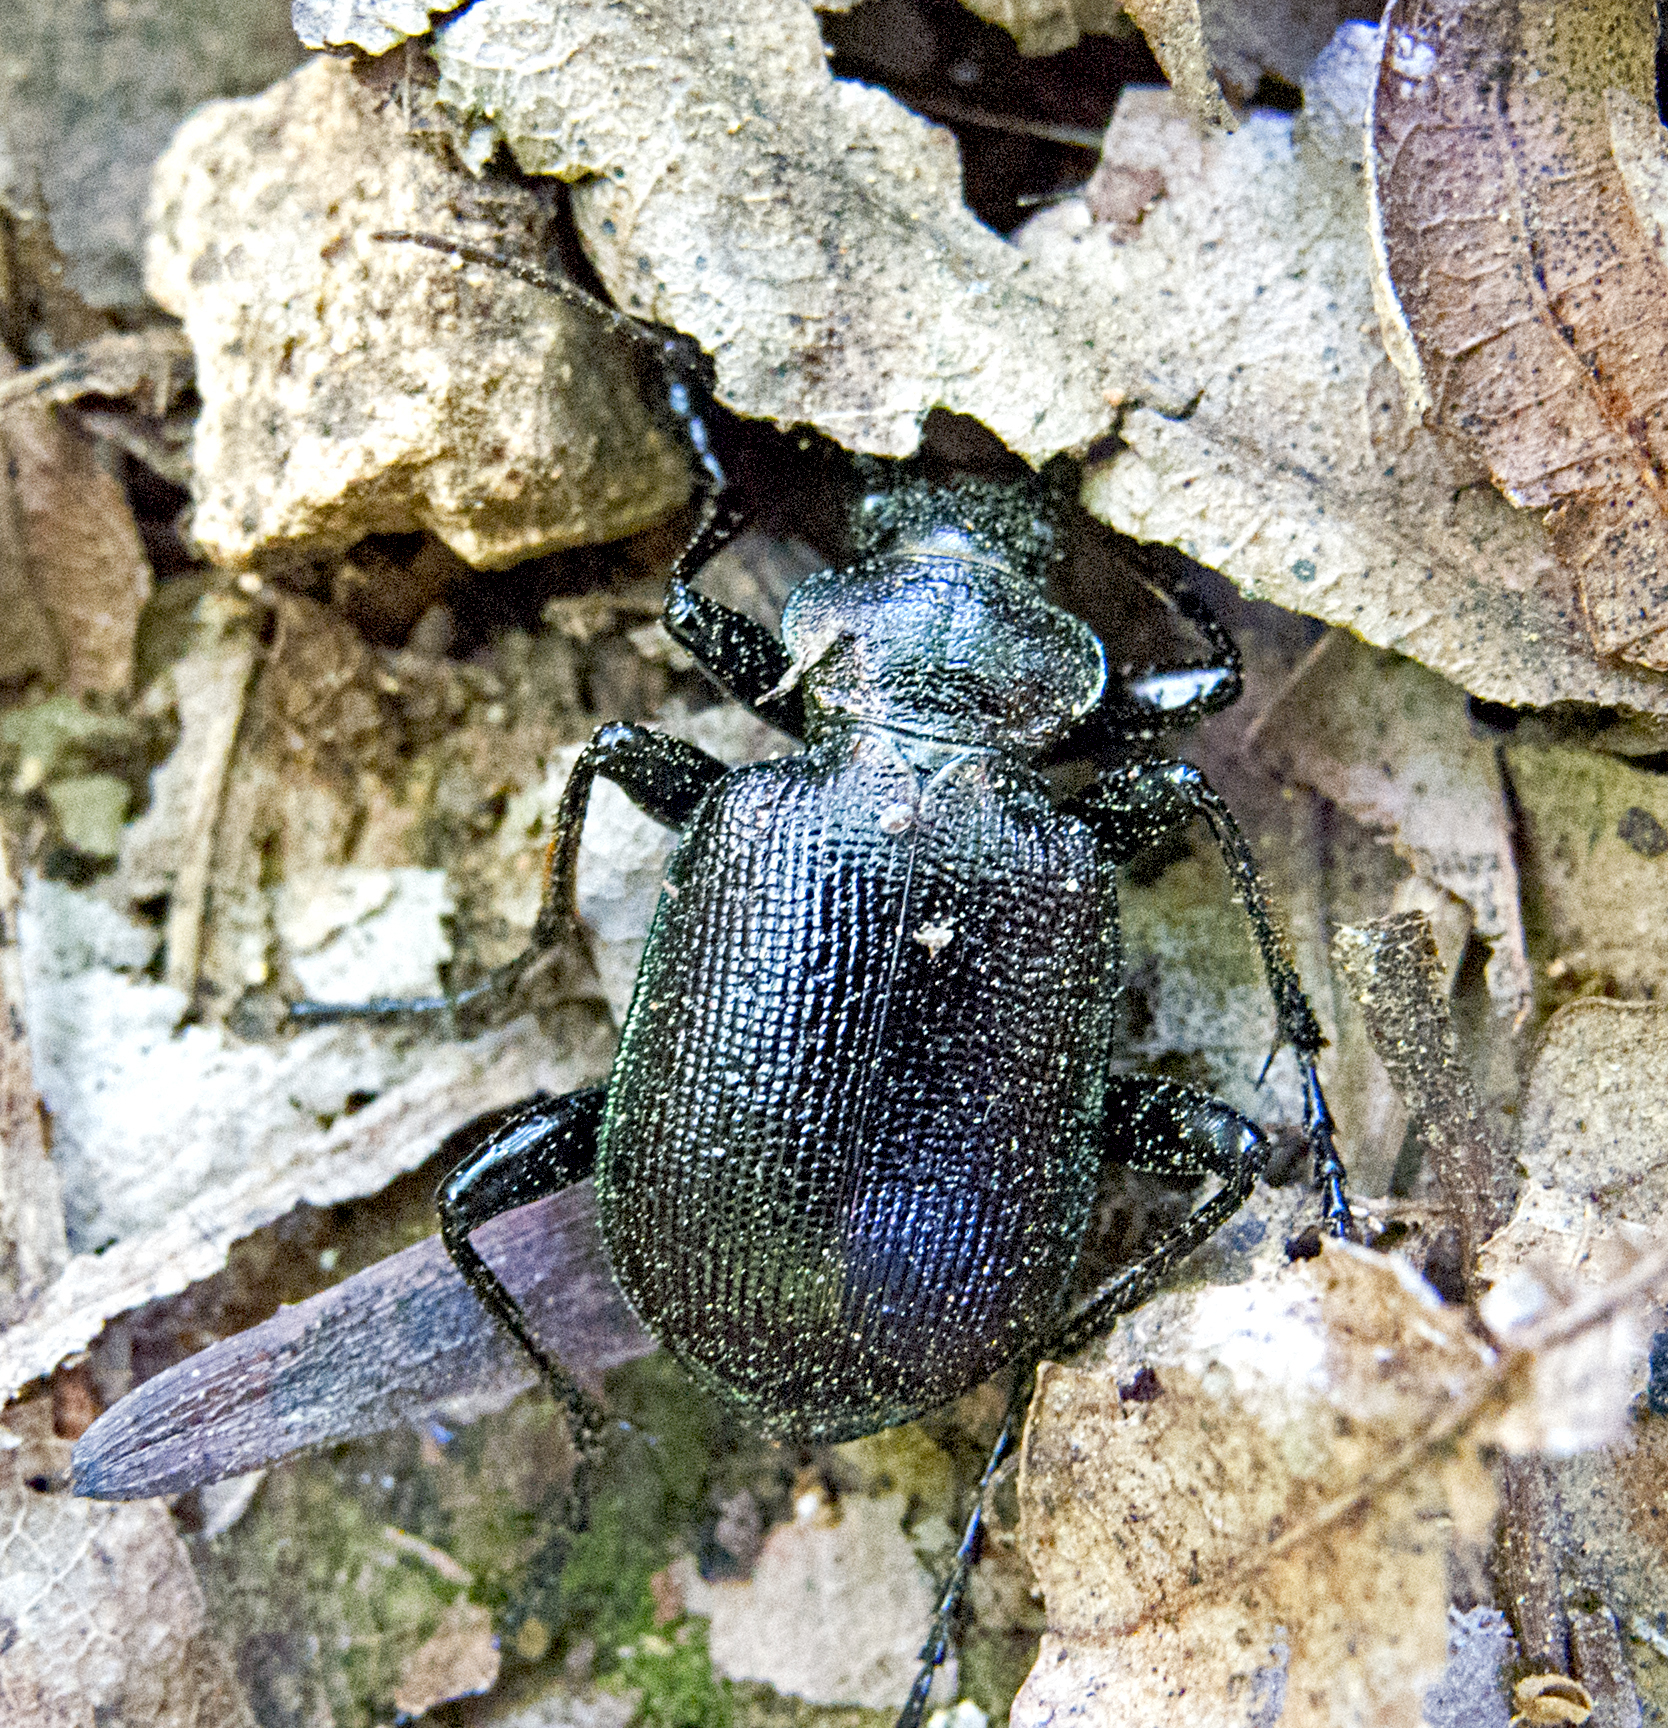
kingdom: Animalia
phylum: Arthropoda
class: Insecta
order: Coleoptera
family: Carabidae
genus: Calosoma
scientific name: Calosoma inquisitor
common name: Caterpillar-hunter
